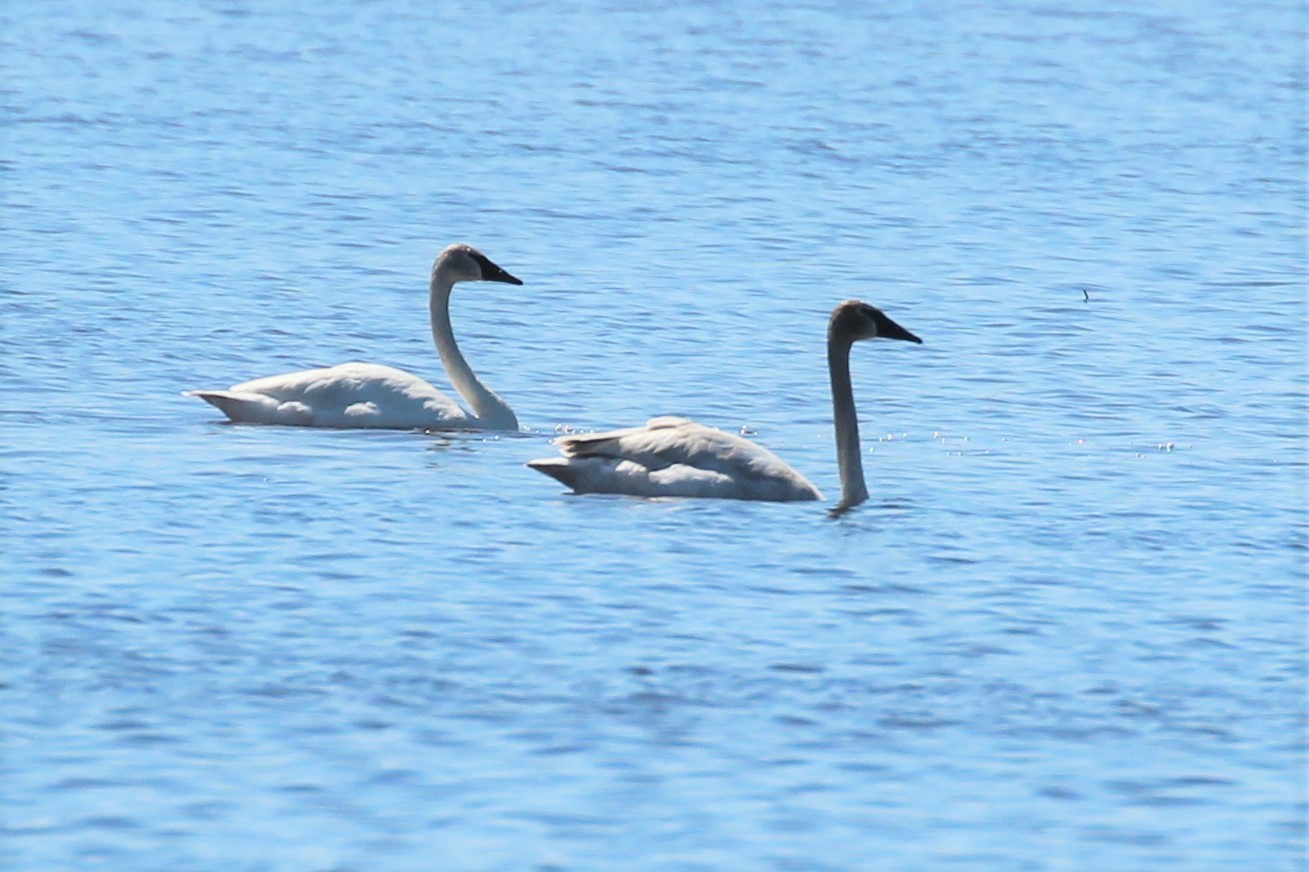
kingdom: Animalia
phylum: Chordata
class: Aves
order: Anseriformes
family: Anatidae
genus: Cygnus
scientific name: Cygnus buccinator
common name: Trumpeter swan
